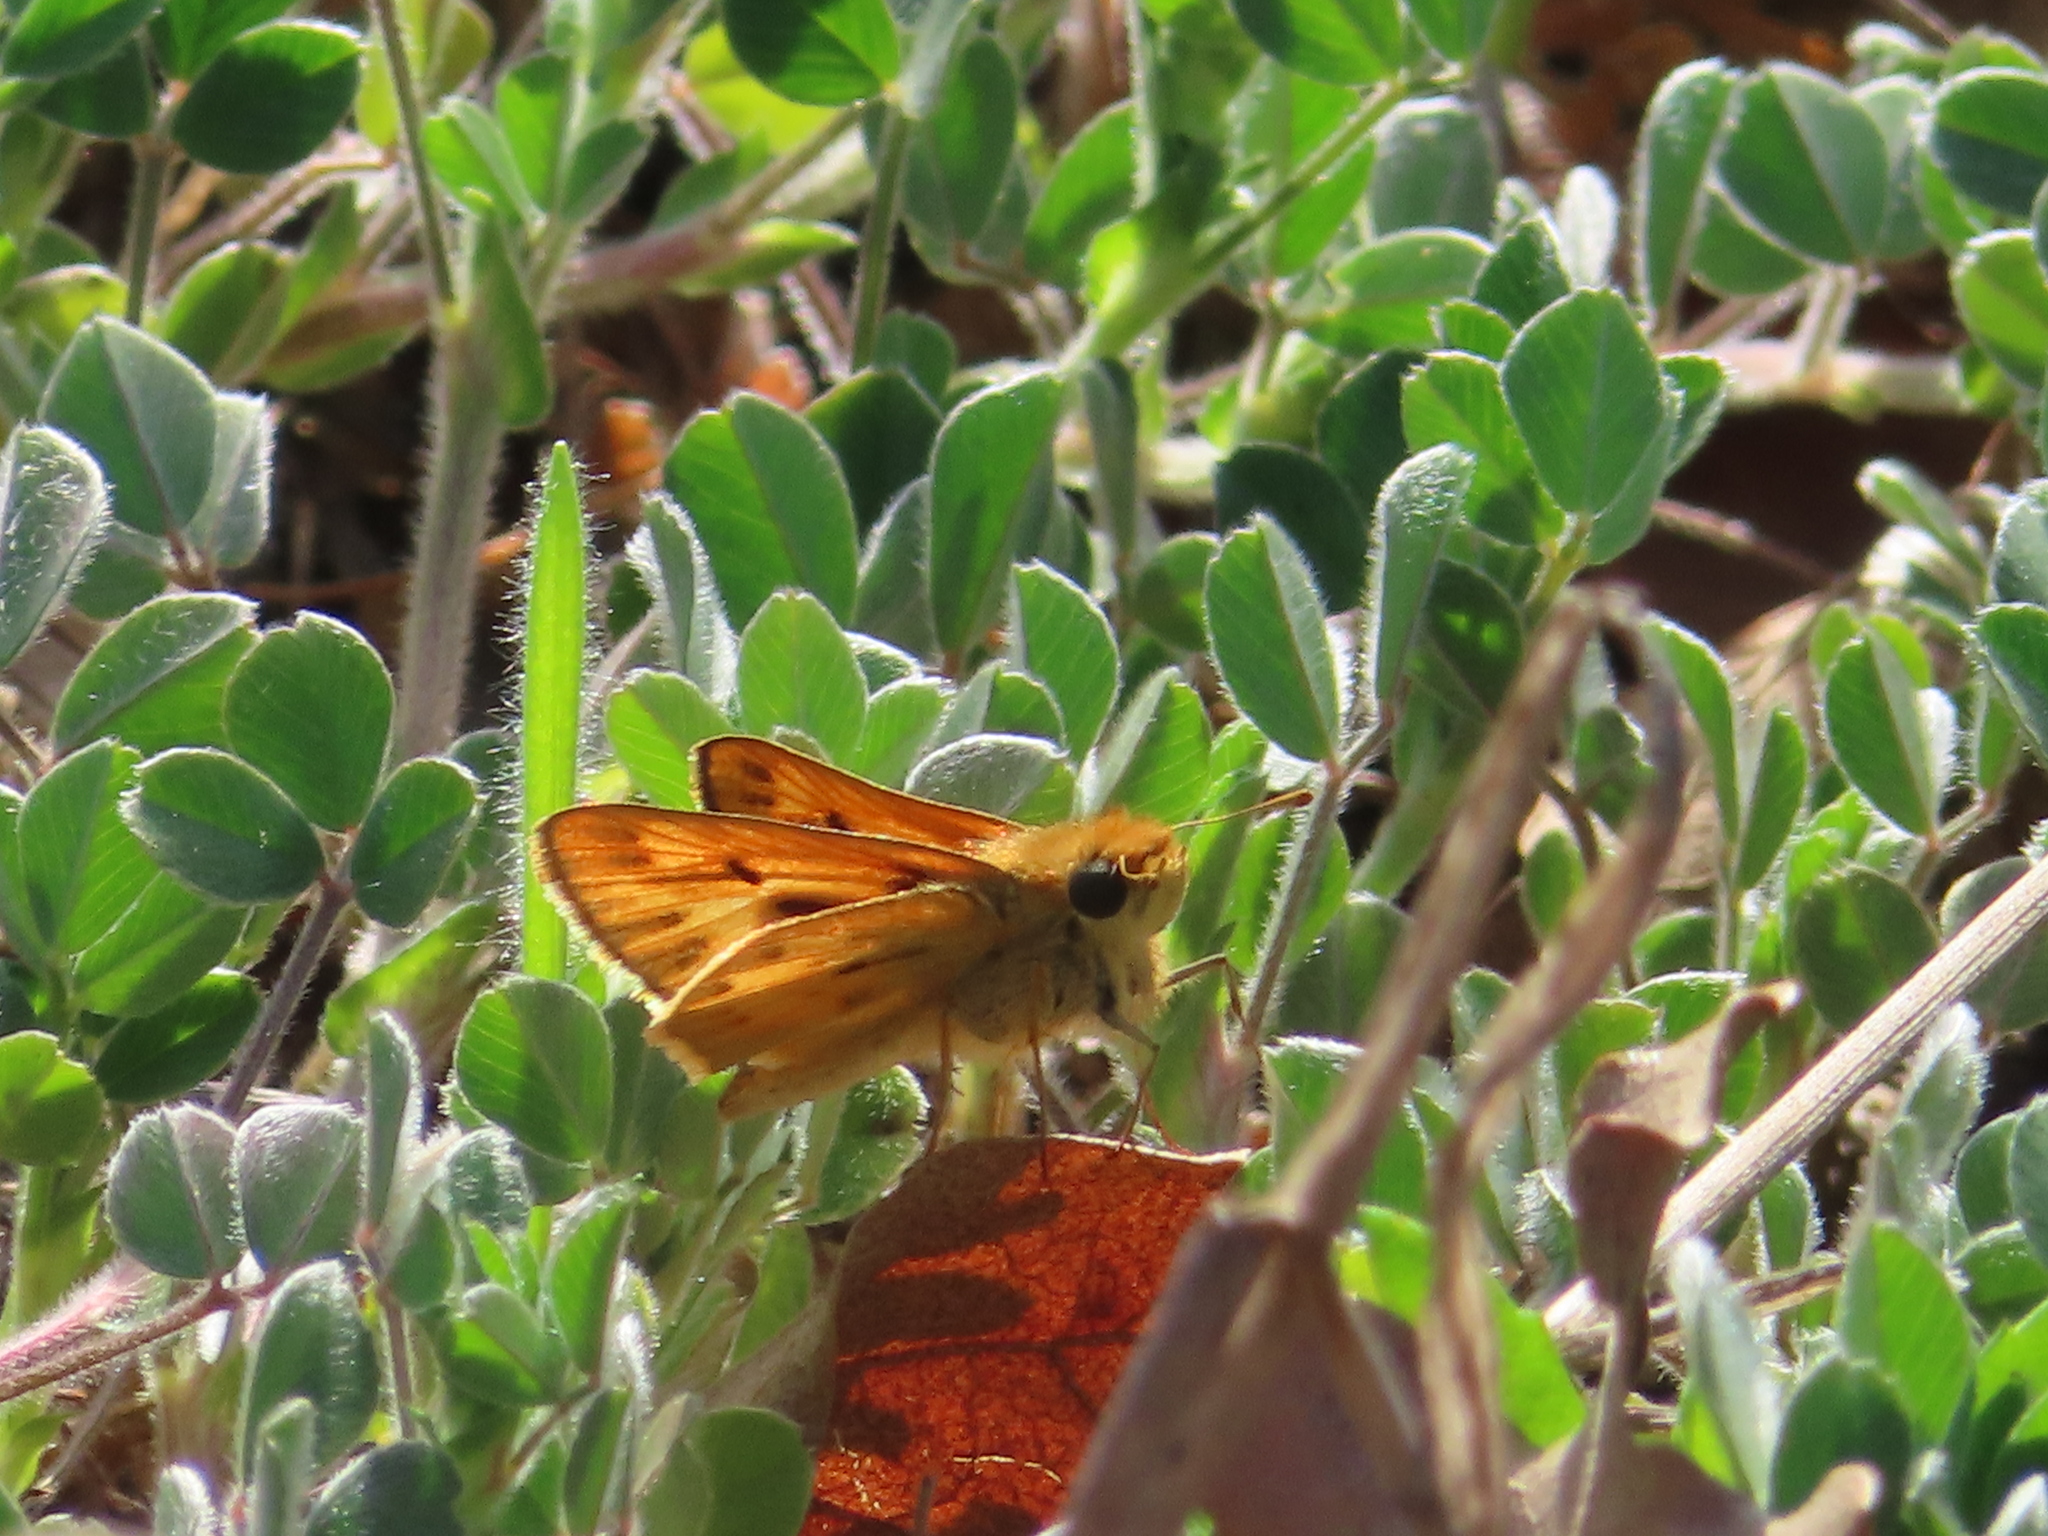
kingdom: Animalia
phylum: Arthropoda
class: Insecta
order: Lepidoptera
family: Hesperiidae
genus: Hylephila
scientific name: Hylephila phyleus
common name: Fiery skipper
